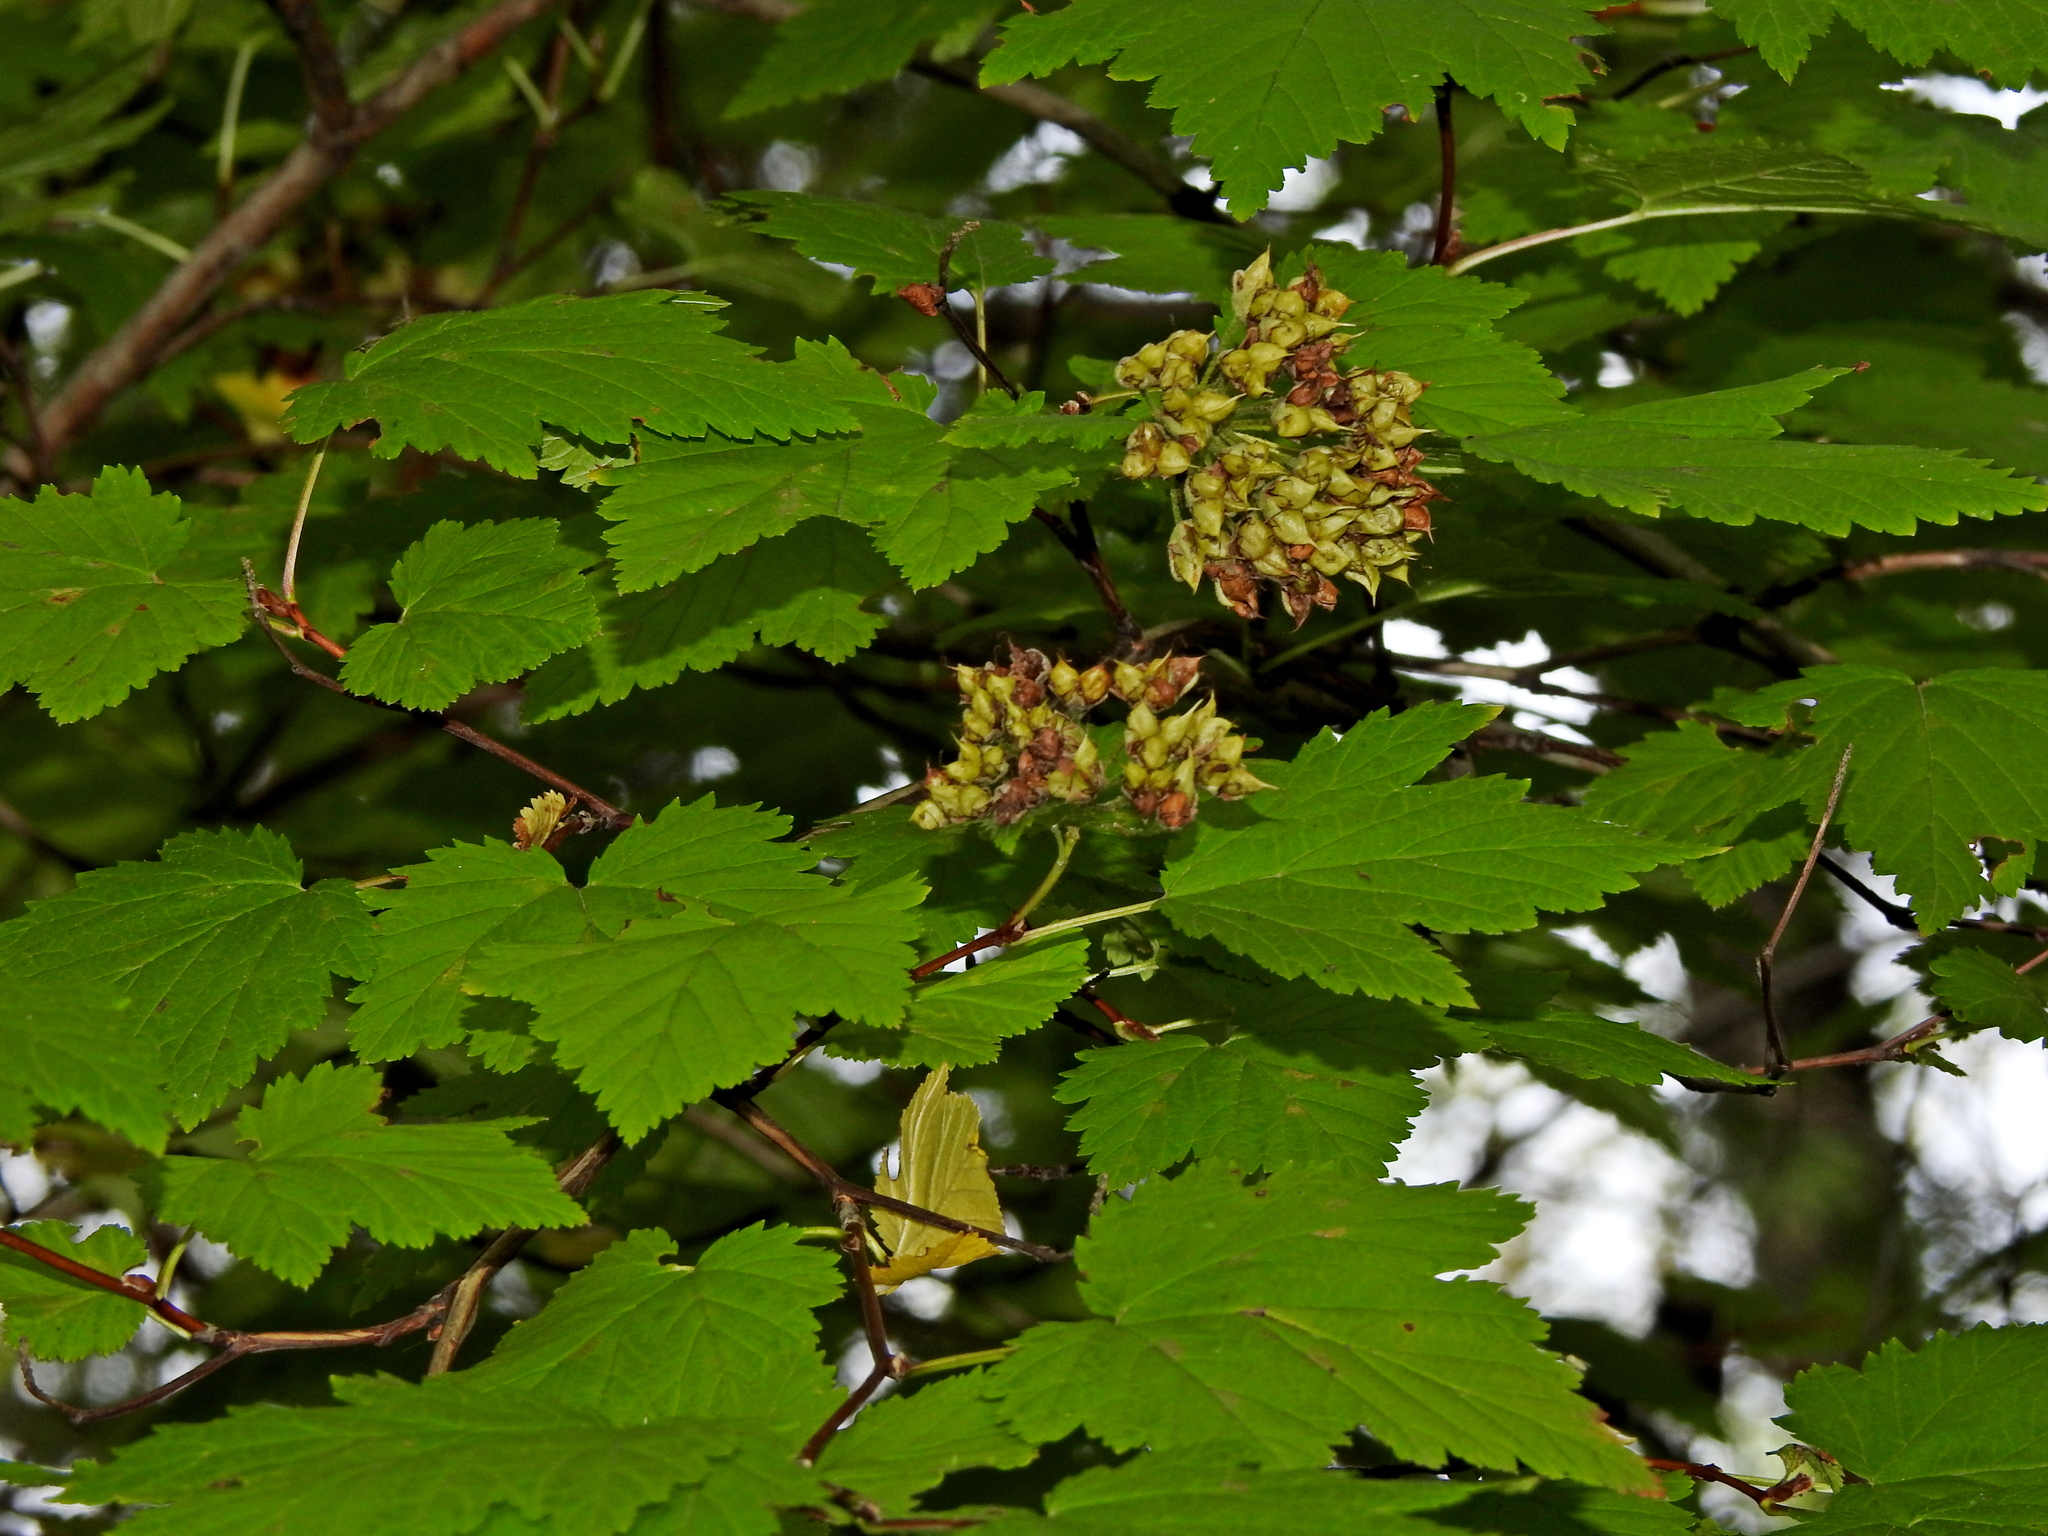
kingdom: Plantae
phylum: Tracheophyta
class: Magnoliopsida
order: Rosales
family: Rosaceae
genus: Physocarpus
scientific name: Physocarpus capitatus
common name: Pacific ninebark
